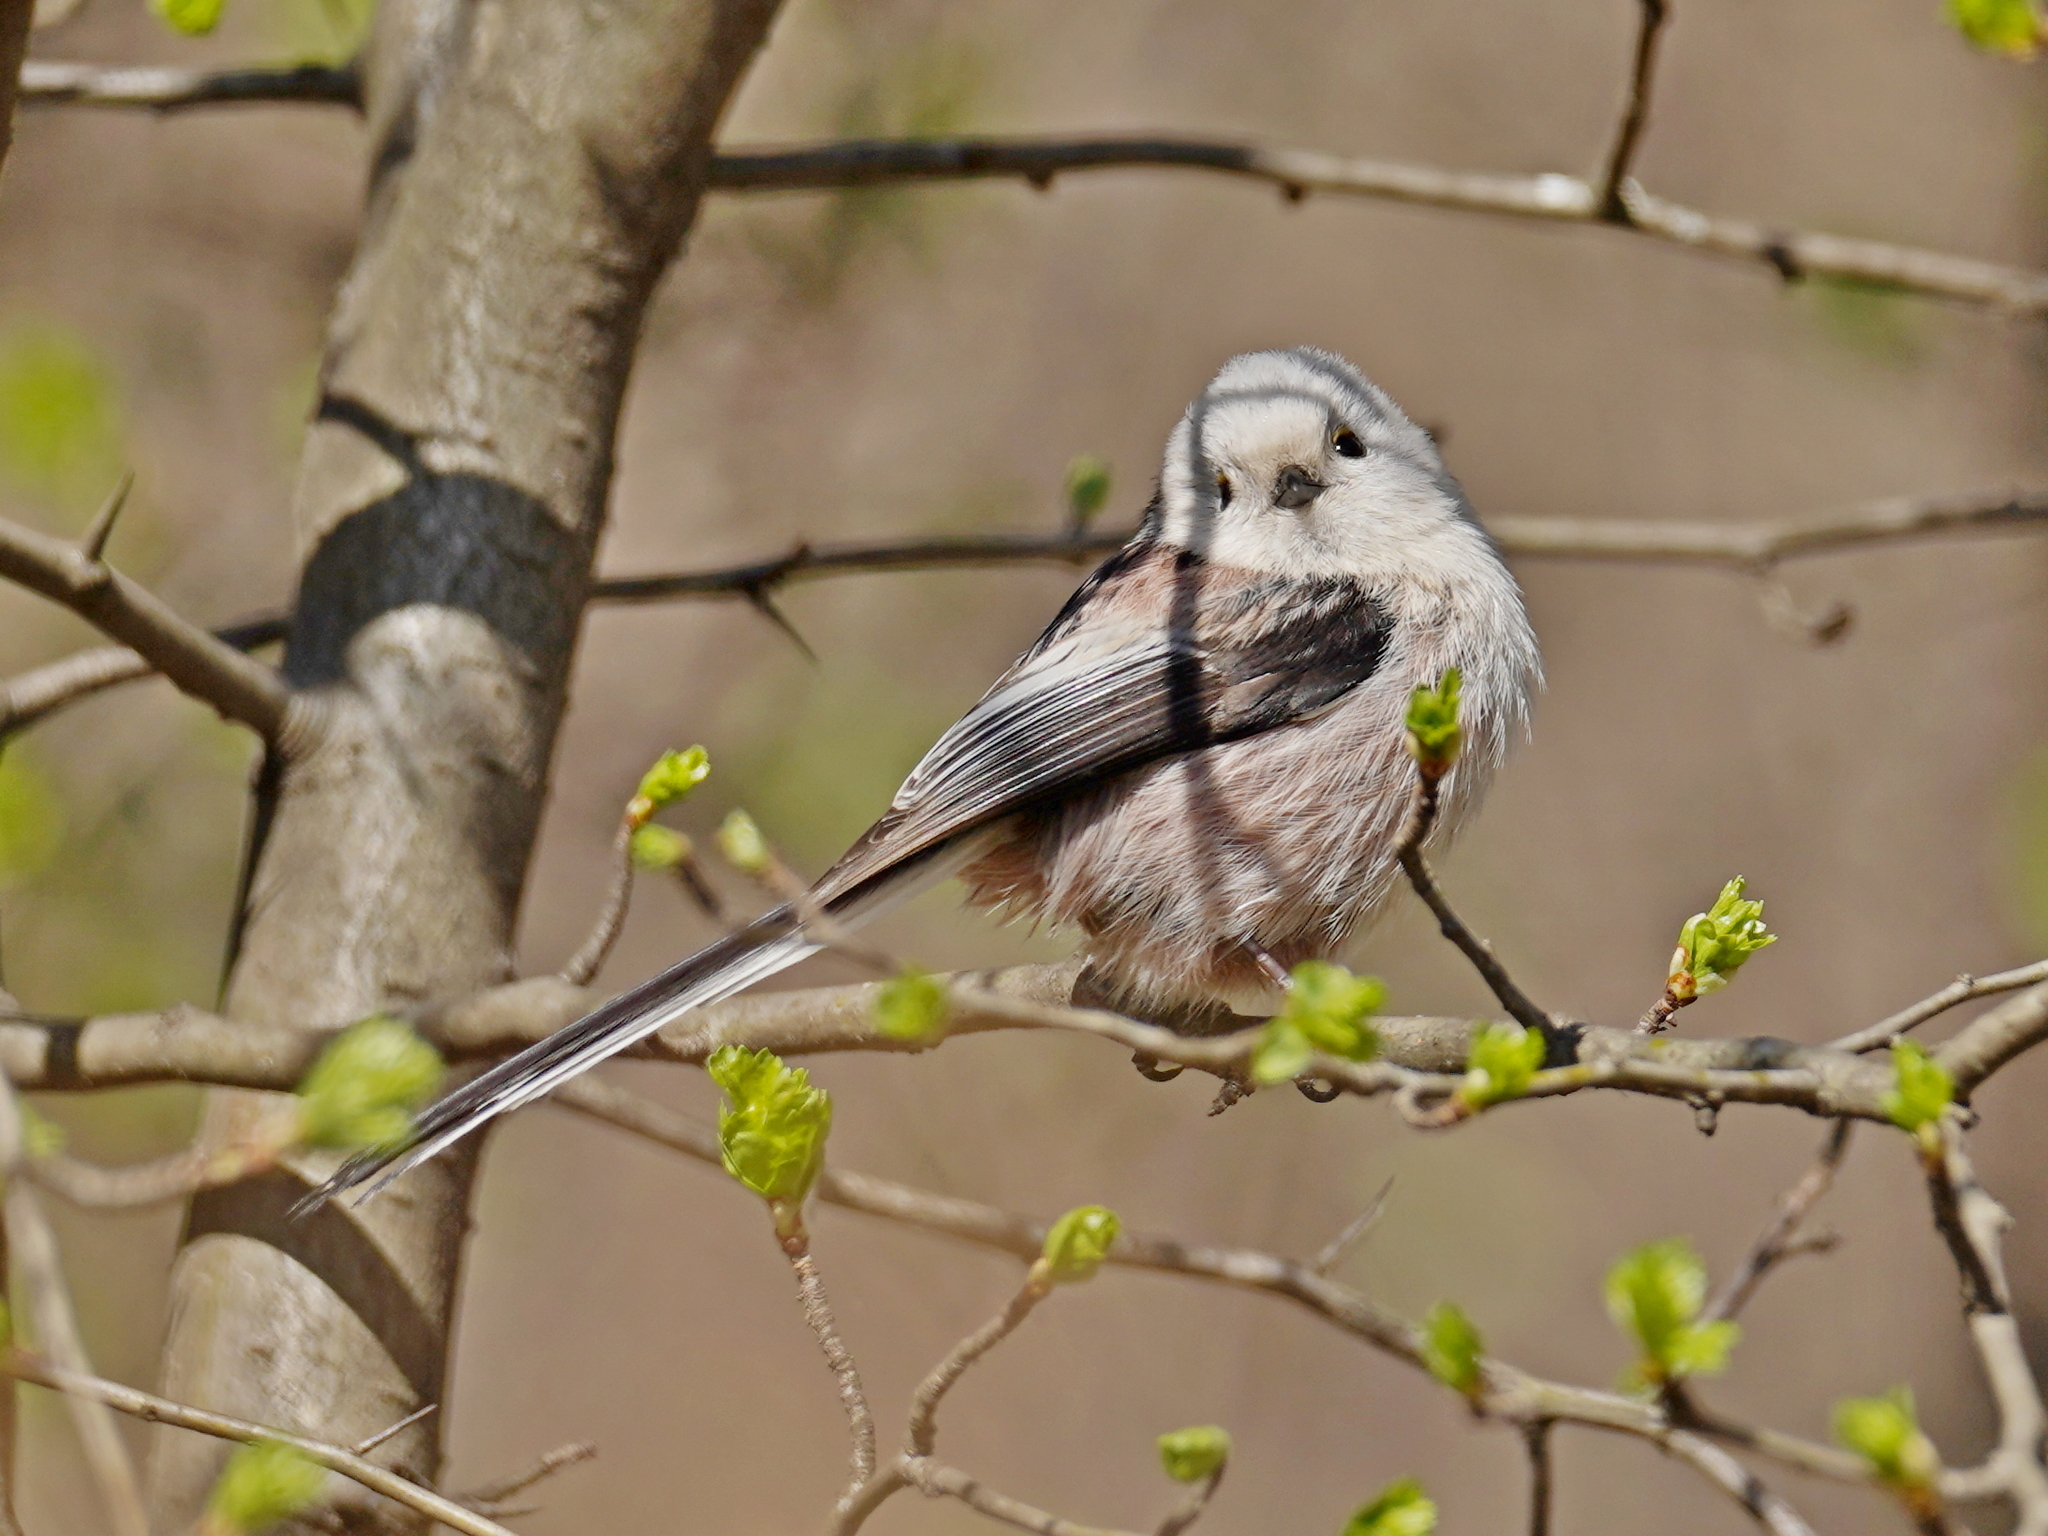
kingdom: Animalia
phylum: Chordata
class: Aves
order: Passeriformes
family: Aegithalidae
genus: Aegithalos
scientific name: Aegithalos caudatus
